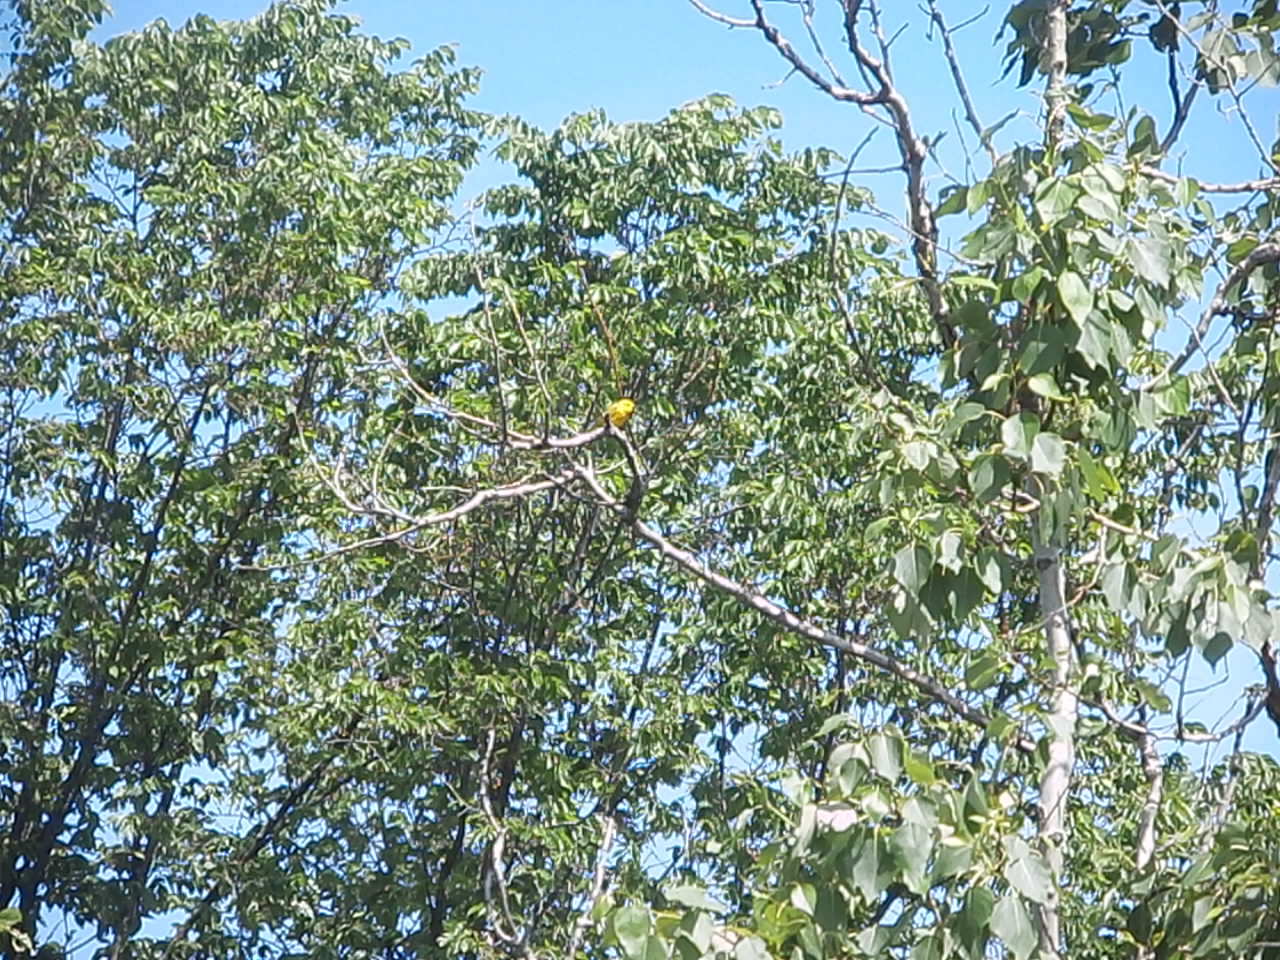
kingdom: Animalia
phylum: Chordata
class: Aves
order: Passeriformes
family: Parulidae
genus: Setophaga
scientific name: Setophaga petechia
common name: Yellow warbler
